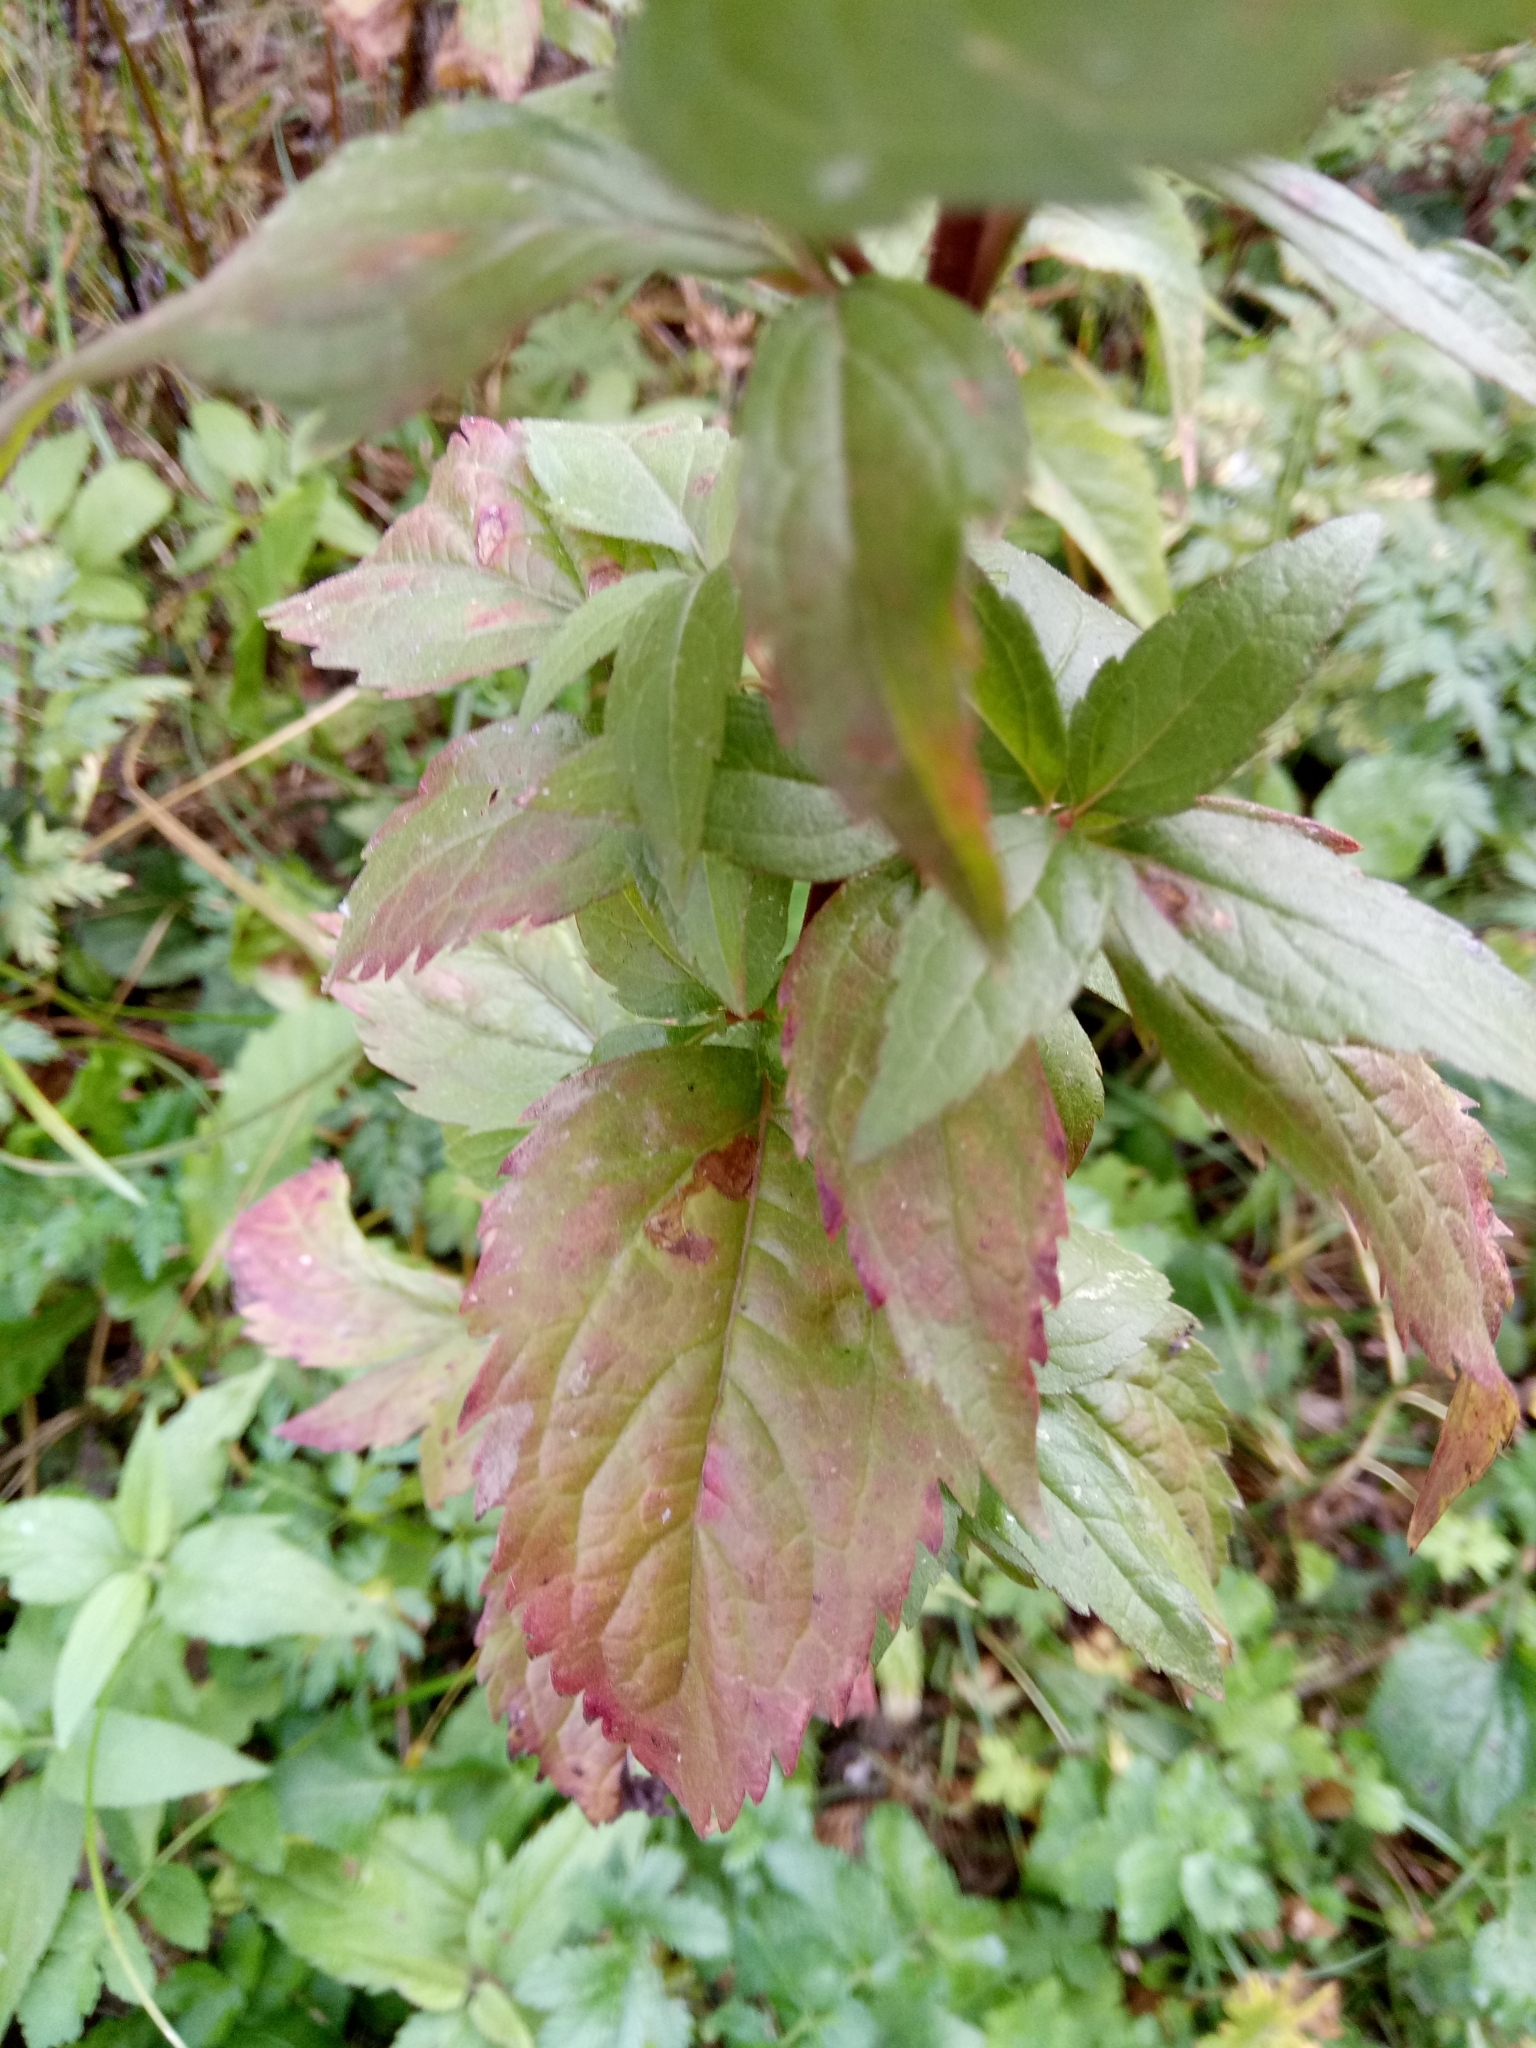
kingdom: Plantae
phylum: Tracheophyta
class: Magnoliopsida
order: Asterales
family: Asteraceae
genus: Eupatorium
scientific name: Eupatorium cannabinum
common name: Hemp-agrimony
